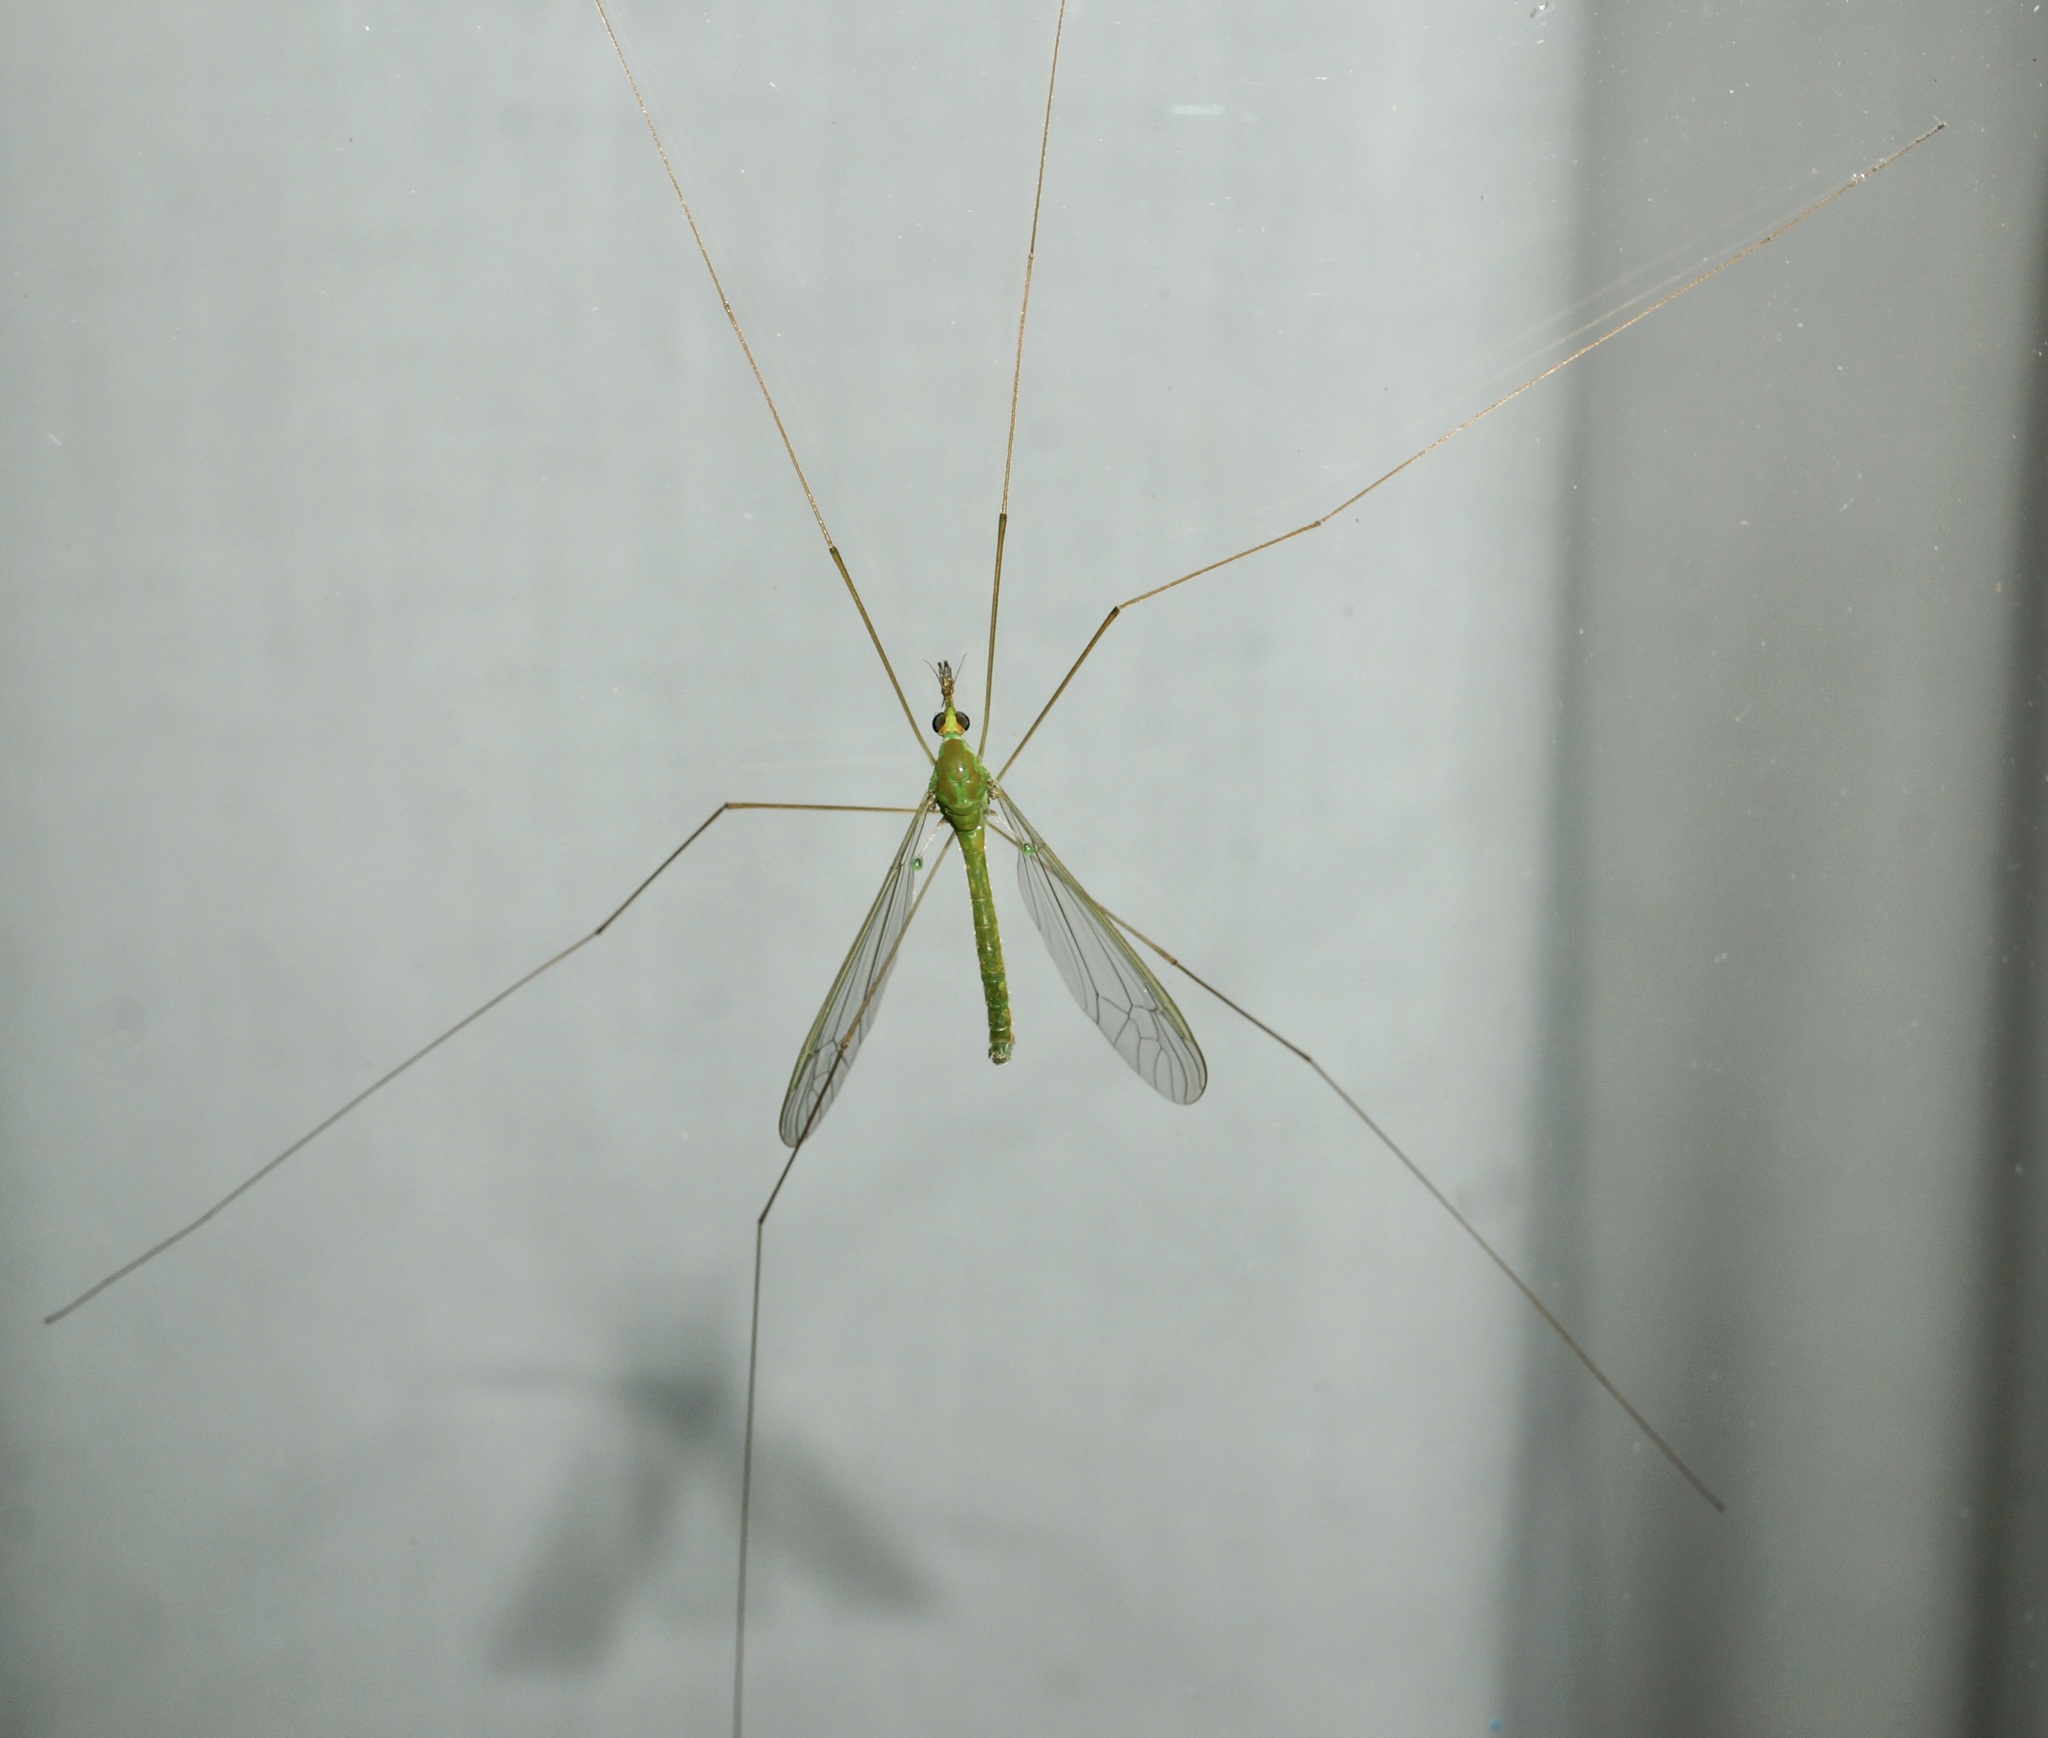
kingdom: Animalia
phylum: Arthropoda
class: Insecta
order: Diptera
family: Tipulidae
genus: Leptotarsus
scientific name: Leptotarsus virescens
